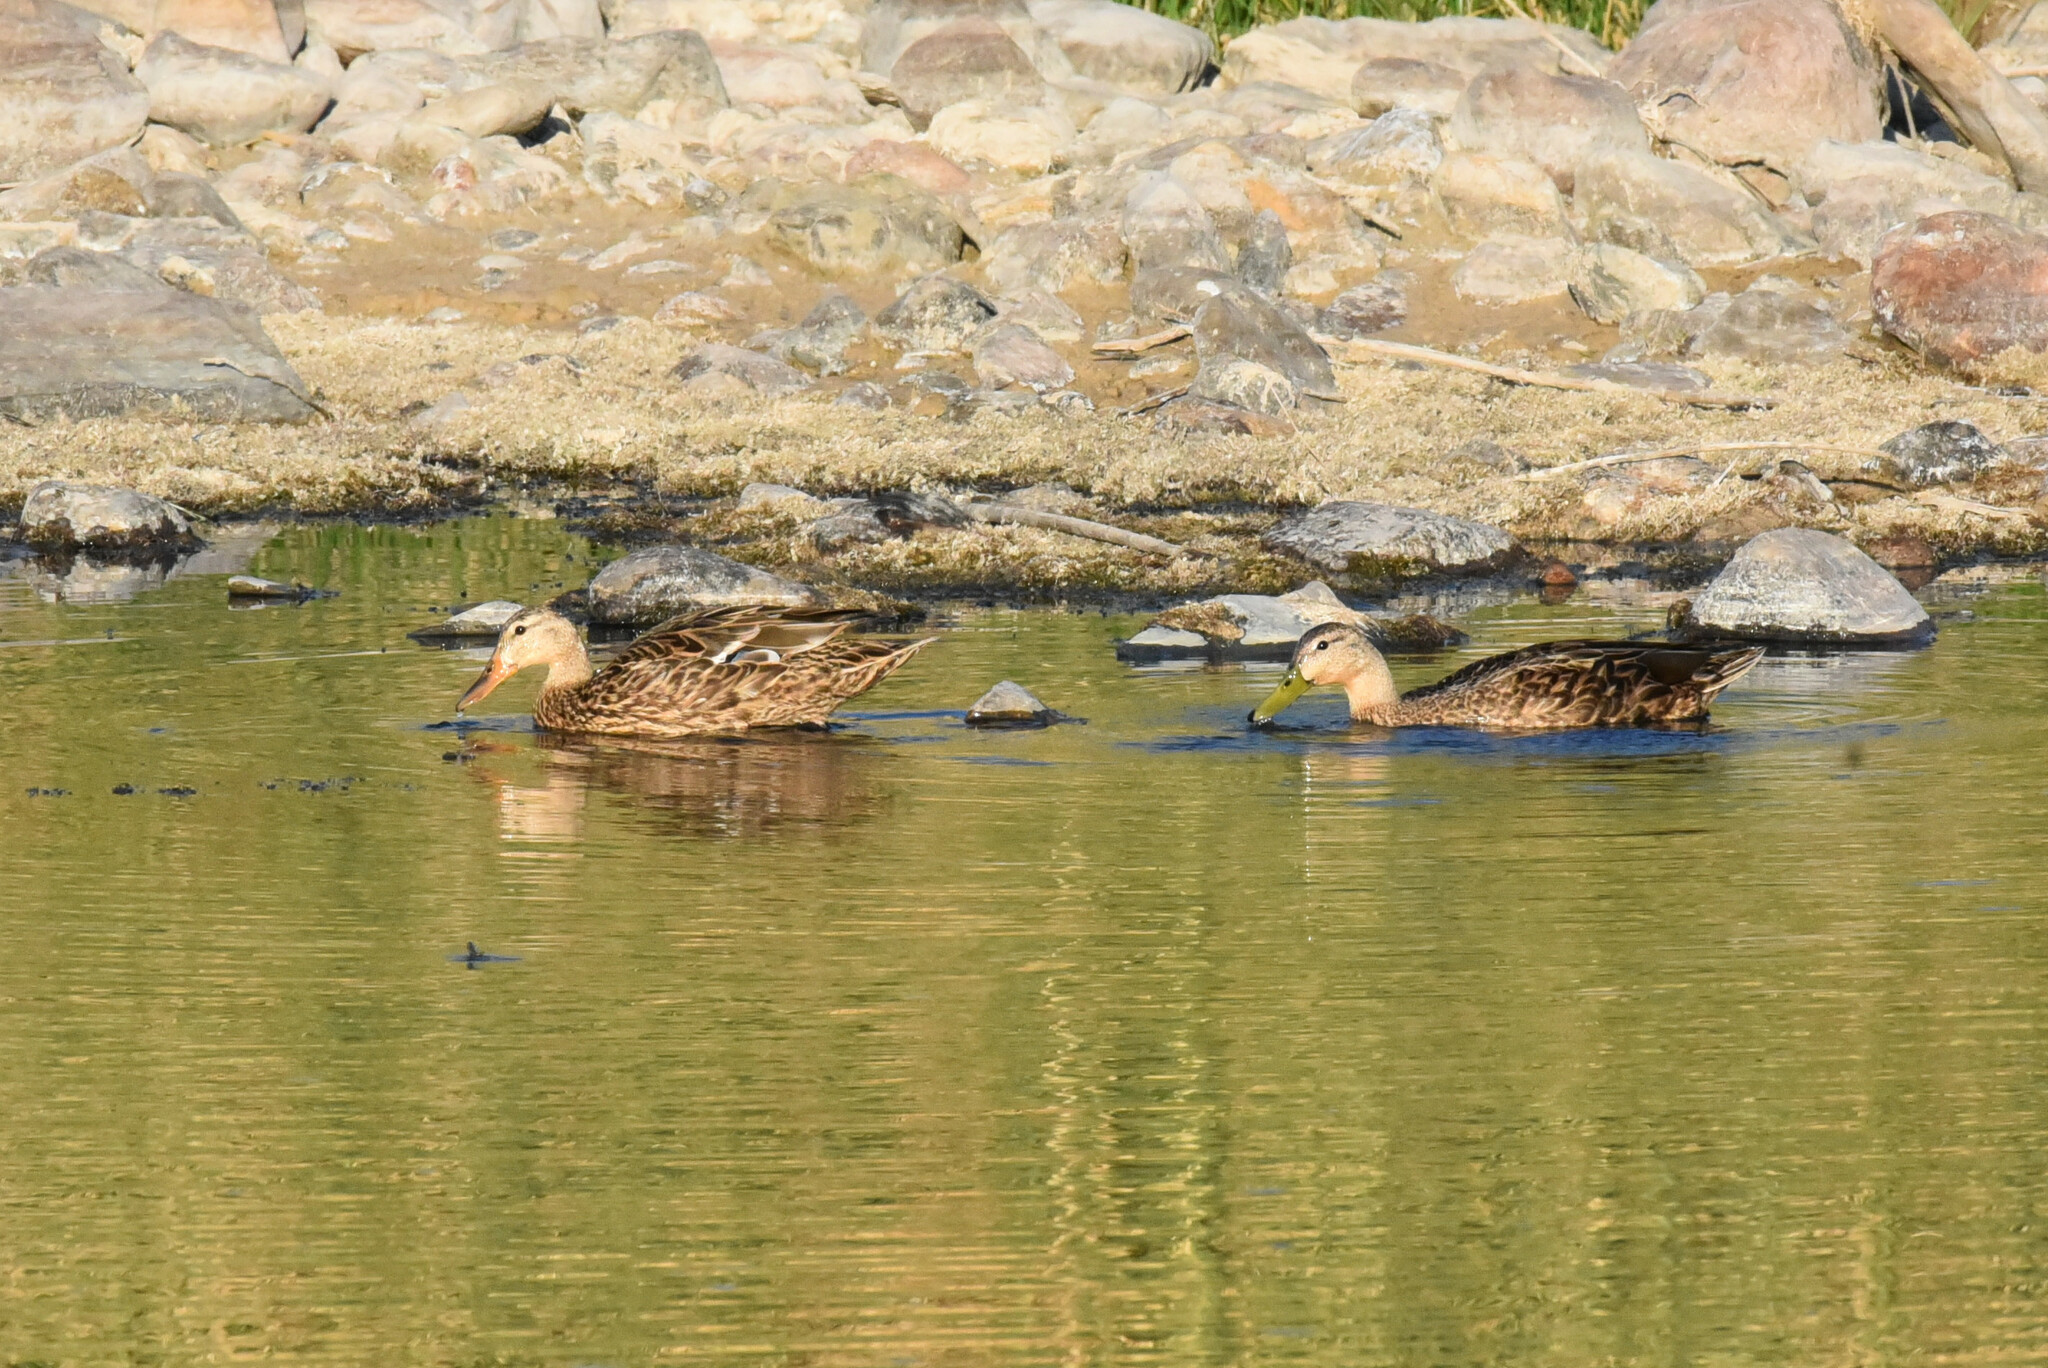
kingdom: Animalia
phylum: Chordata
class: Aves
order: Anseriformes
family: Anatidae
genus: Anas
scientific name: Anas diazi
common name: Mexican duck
